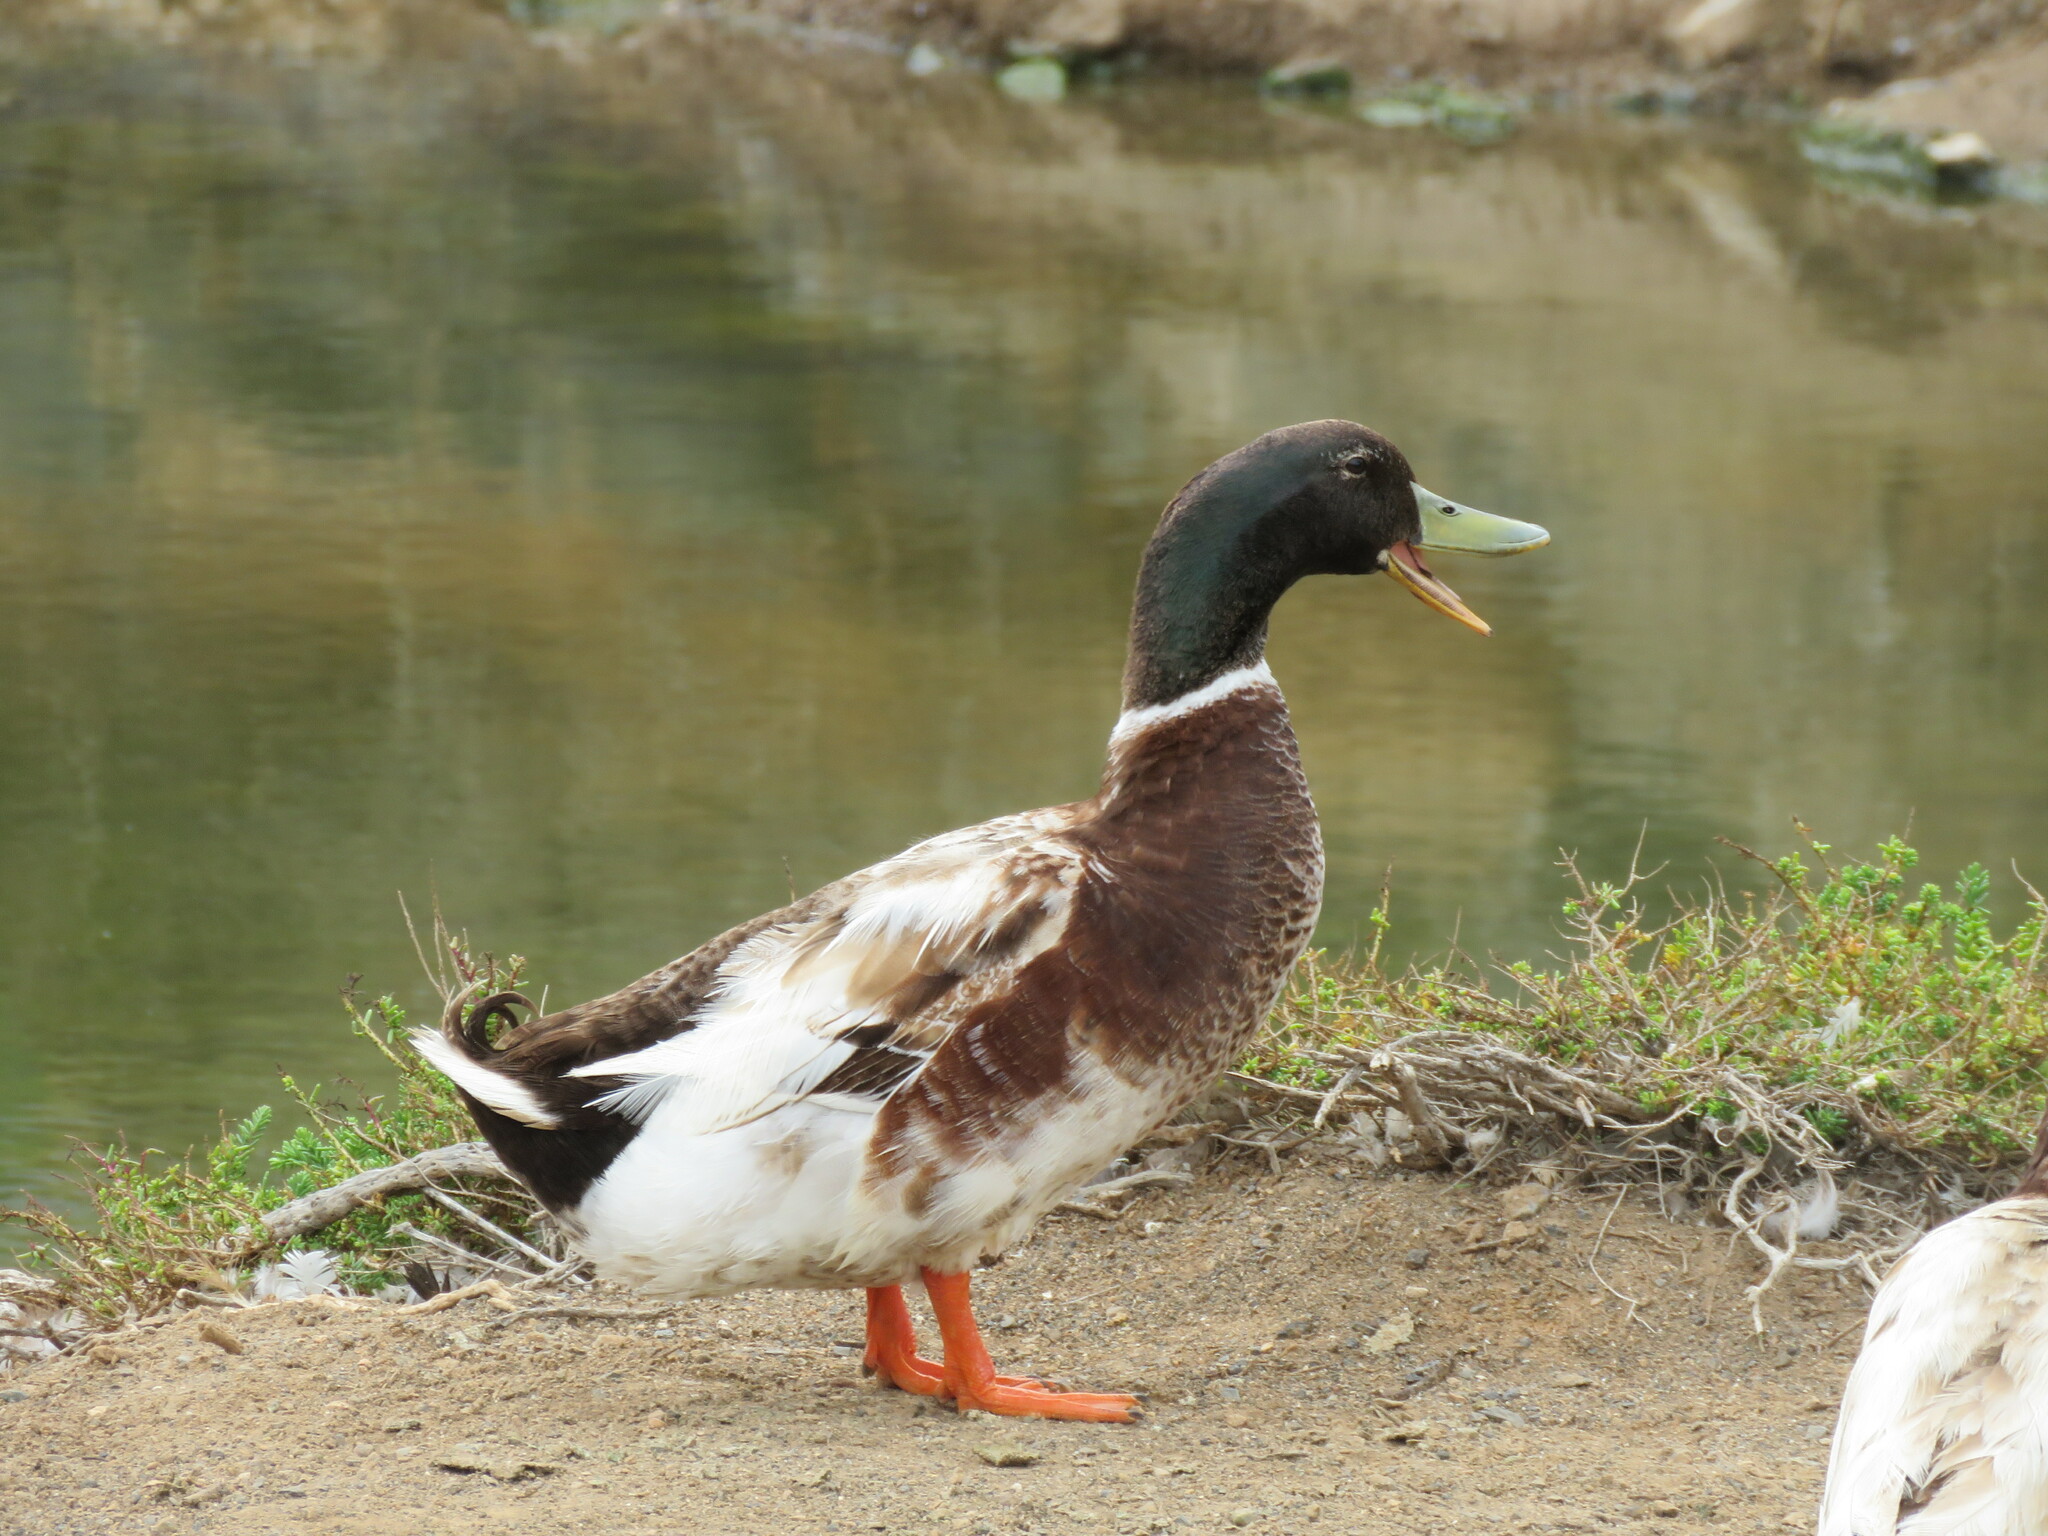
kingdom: Animalia
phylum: Chordata
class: Aves
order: Anseriformes
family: Anatidae
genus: Anas
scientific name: Anas platyrhynchos
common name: Mallard
